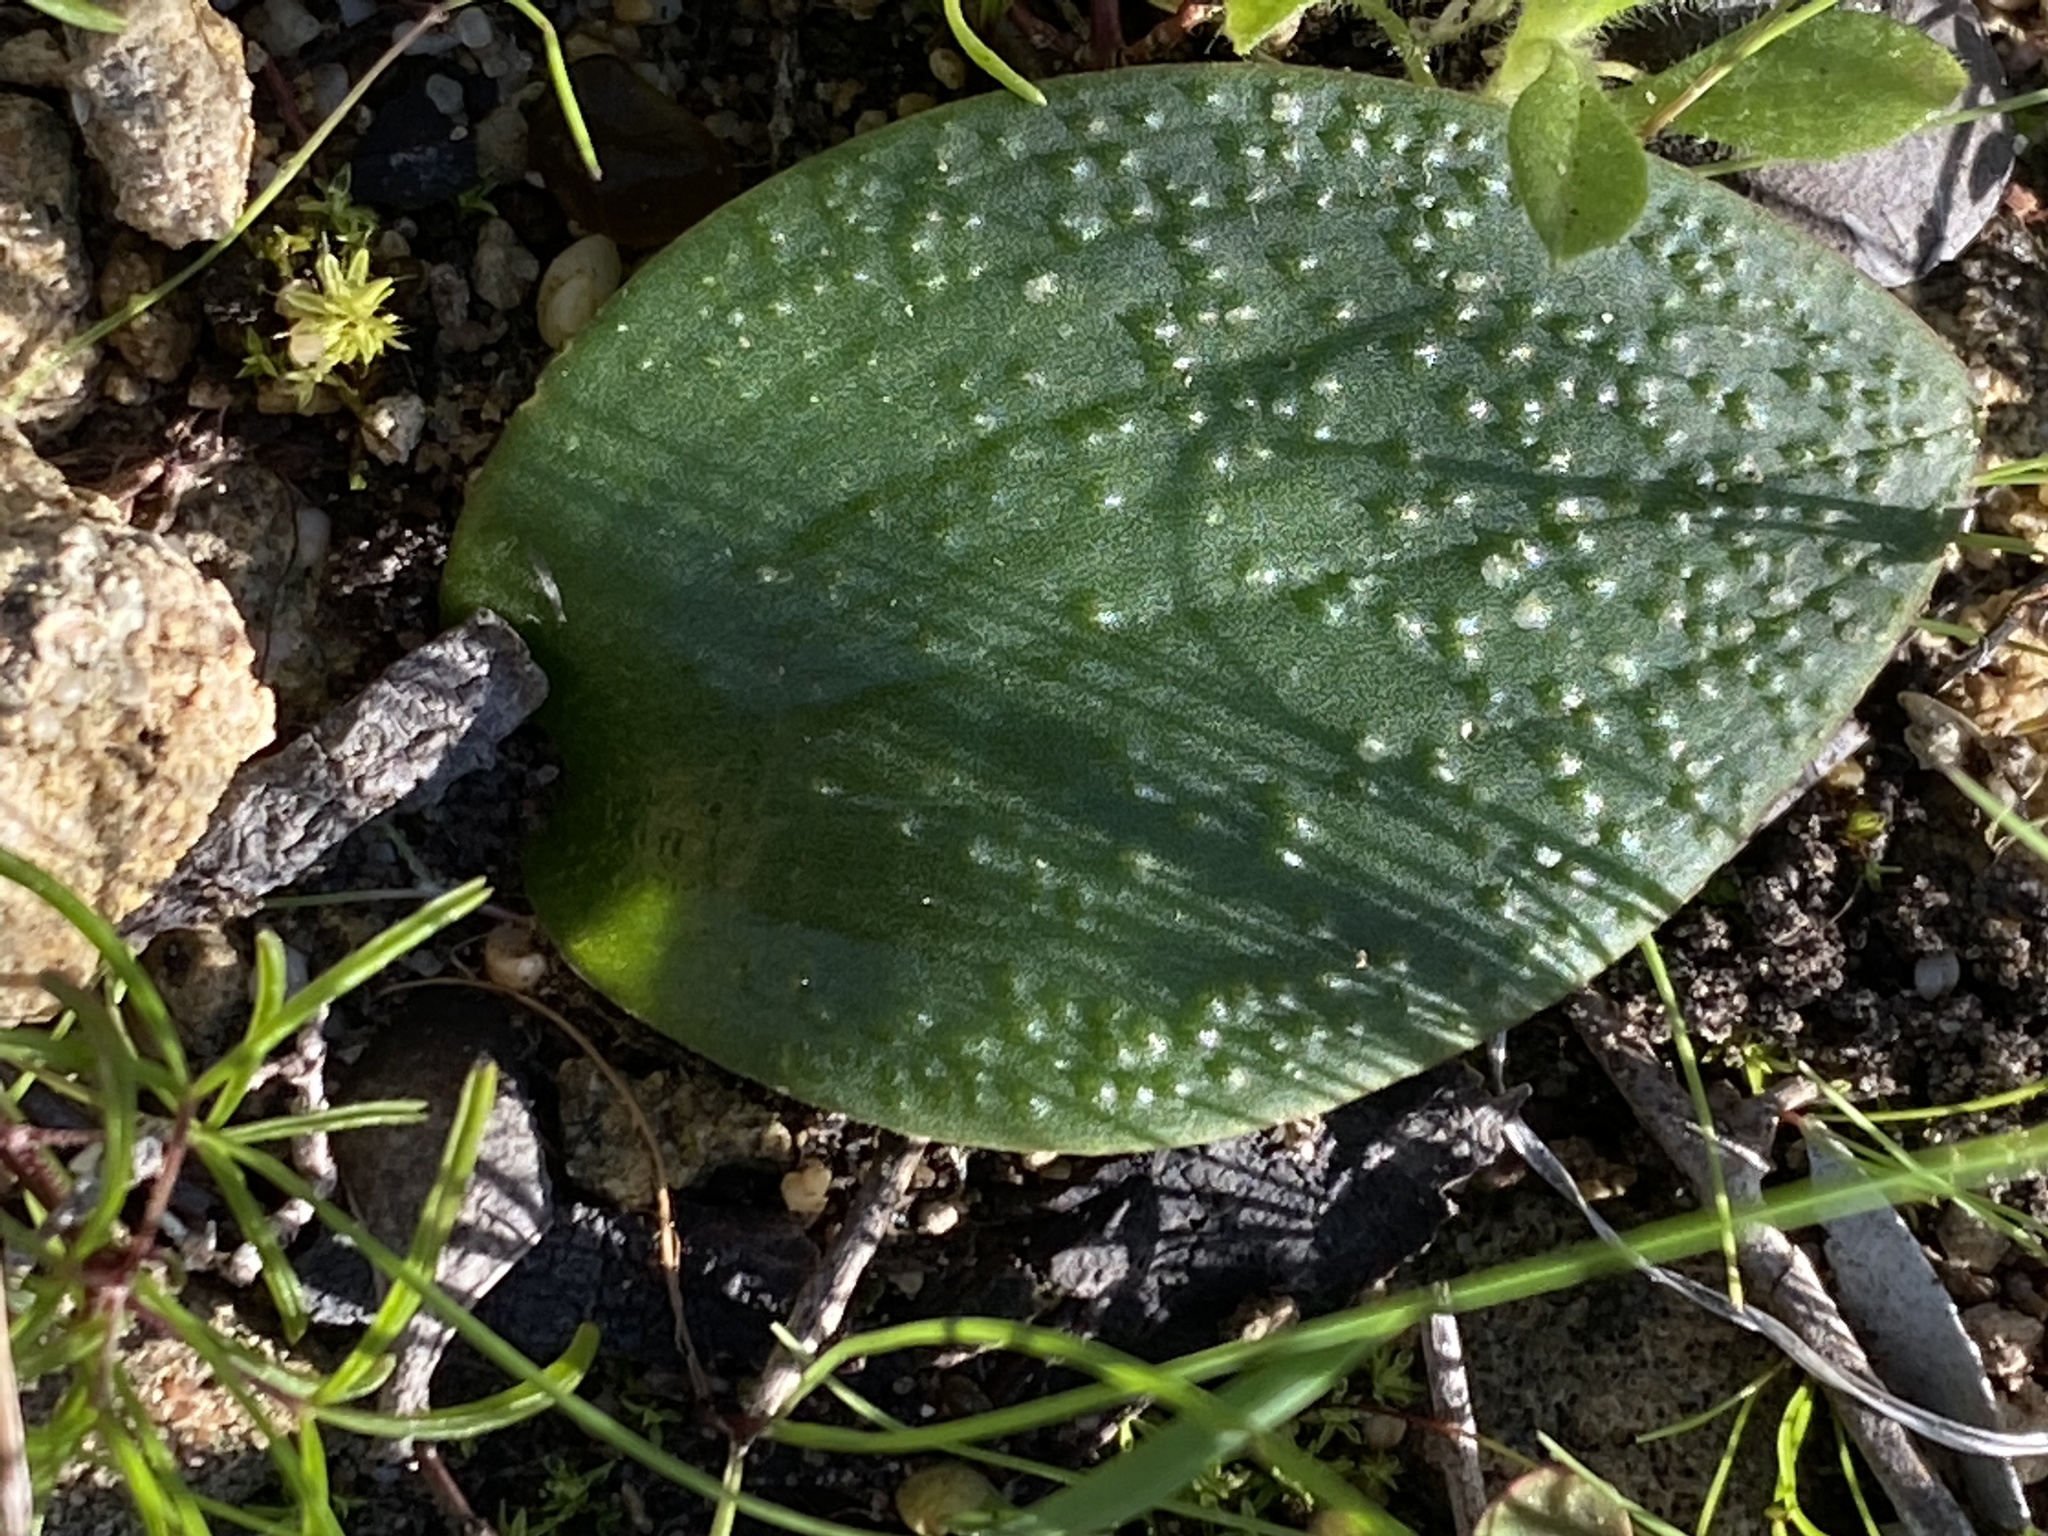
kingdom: Plantae
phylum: Tracheophyta
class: Liliopsida
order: Asparagales
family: Asparagaceae
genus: Massonia
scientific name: Massonia longipes
